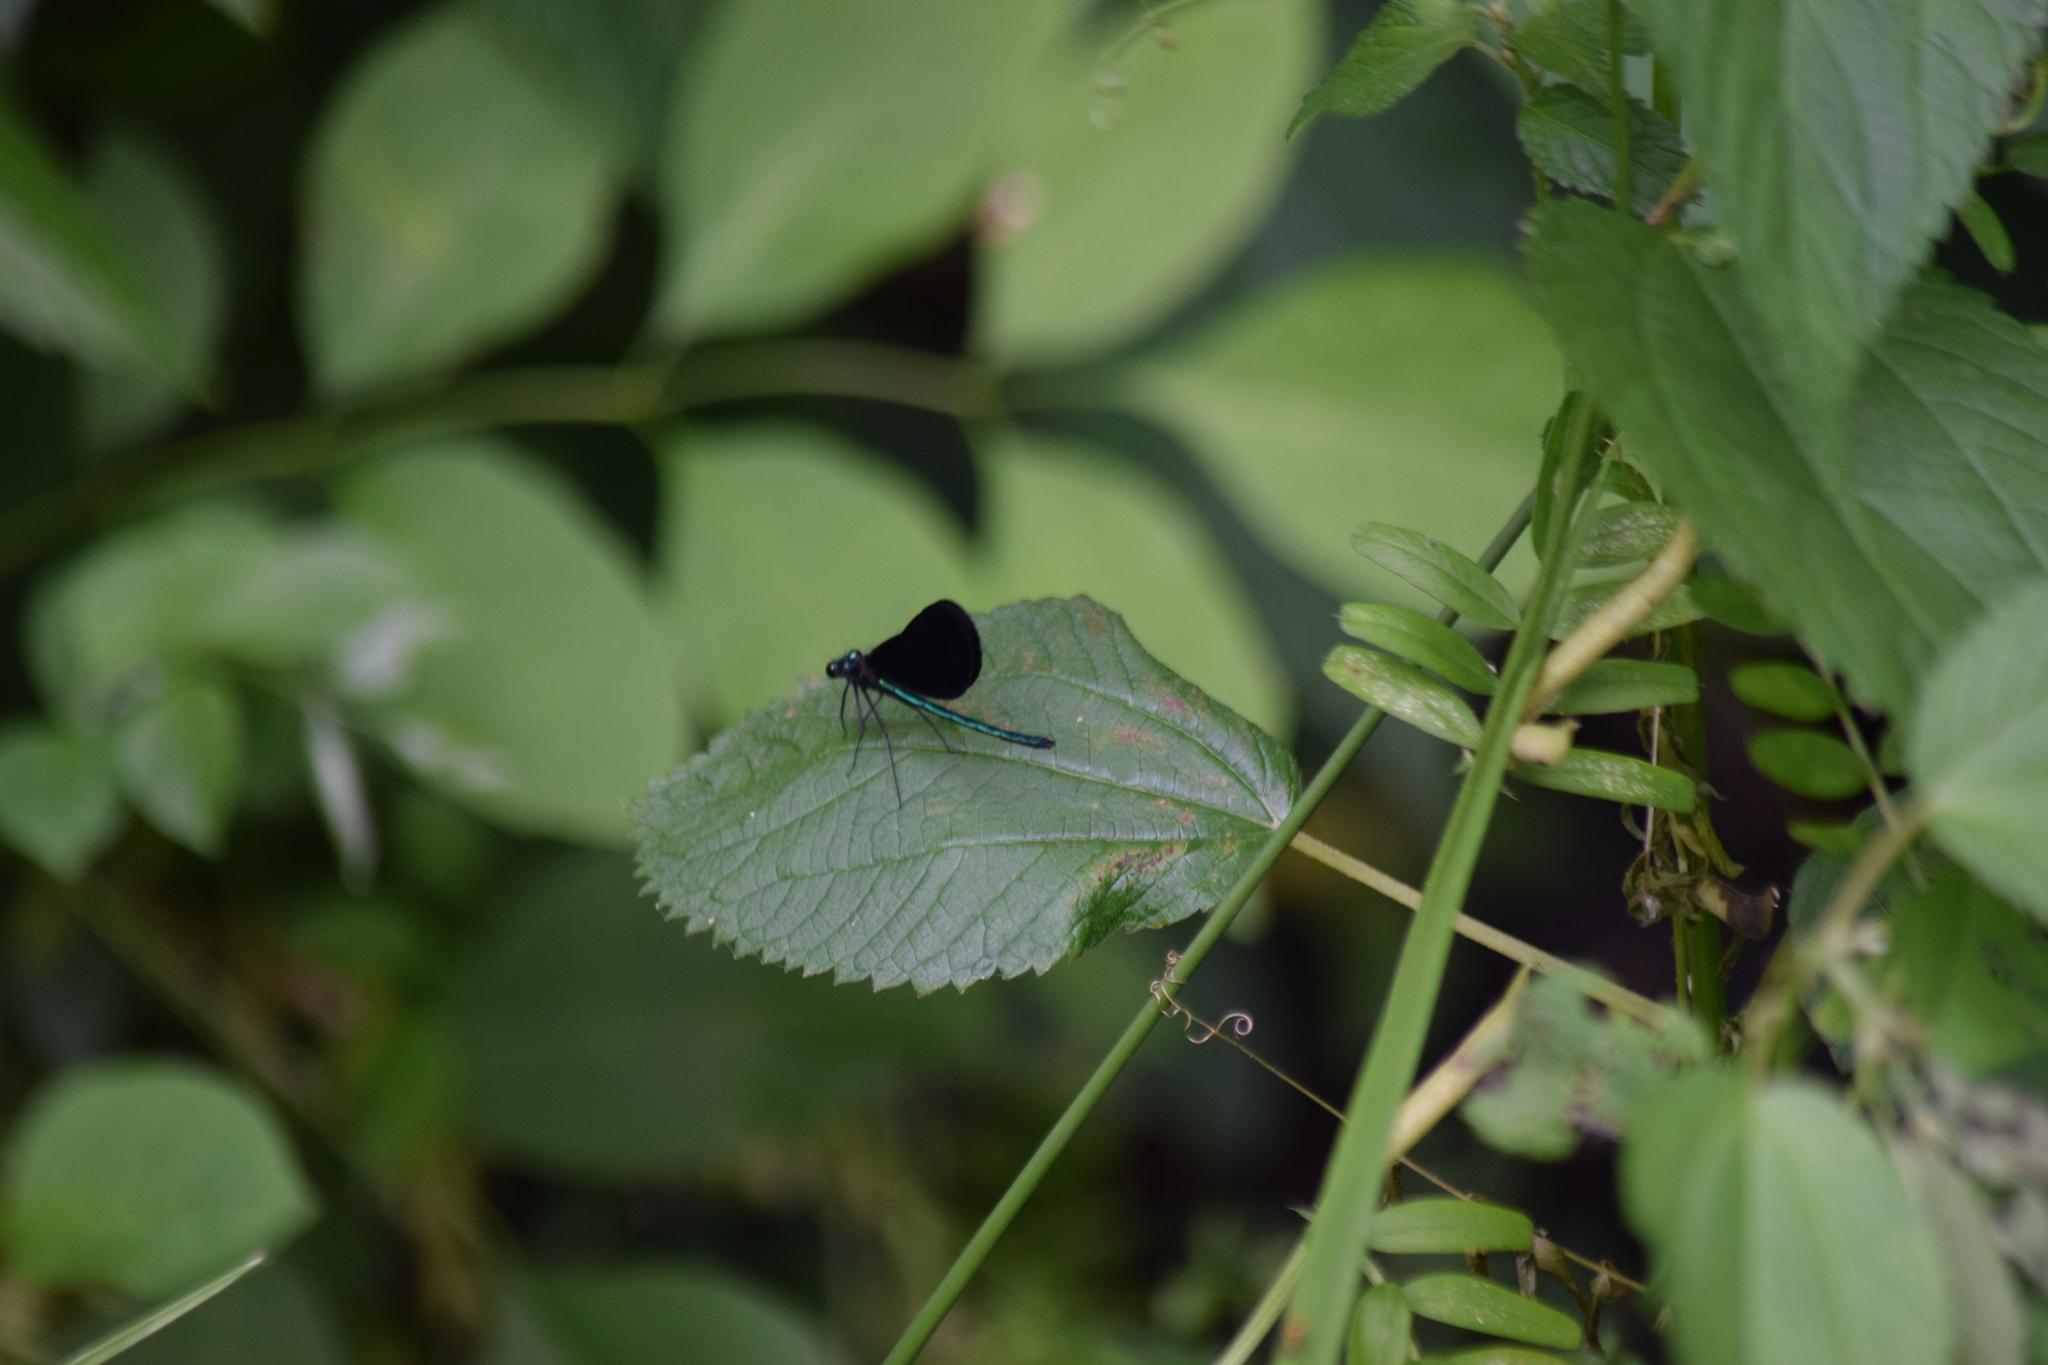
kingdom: Animalia
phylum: Arthropoda
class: Insecta
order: Odonata
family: Calopterygidae
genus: Calopteryx
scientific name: Calopteryx maculata
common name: Ebony jewelwing
